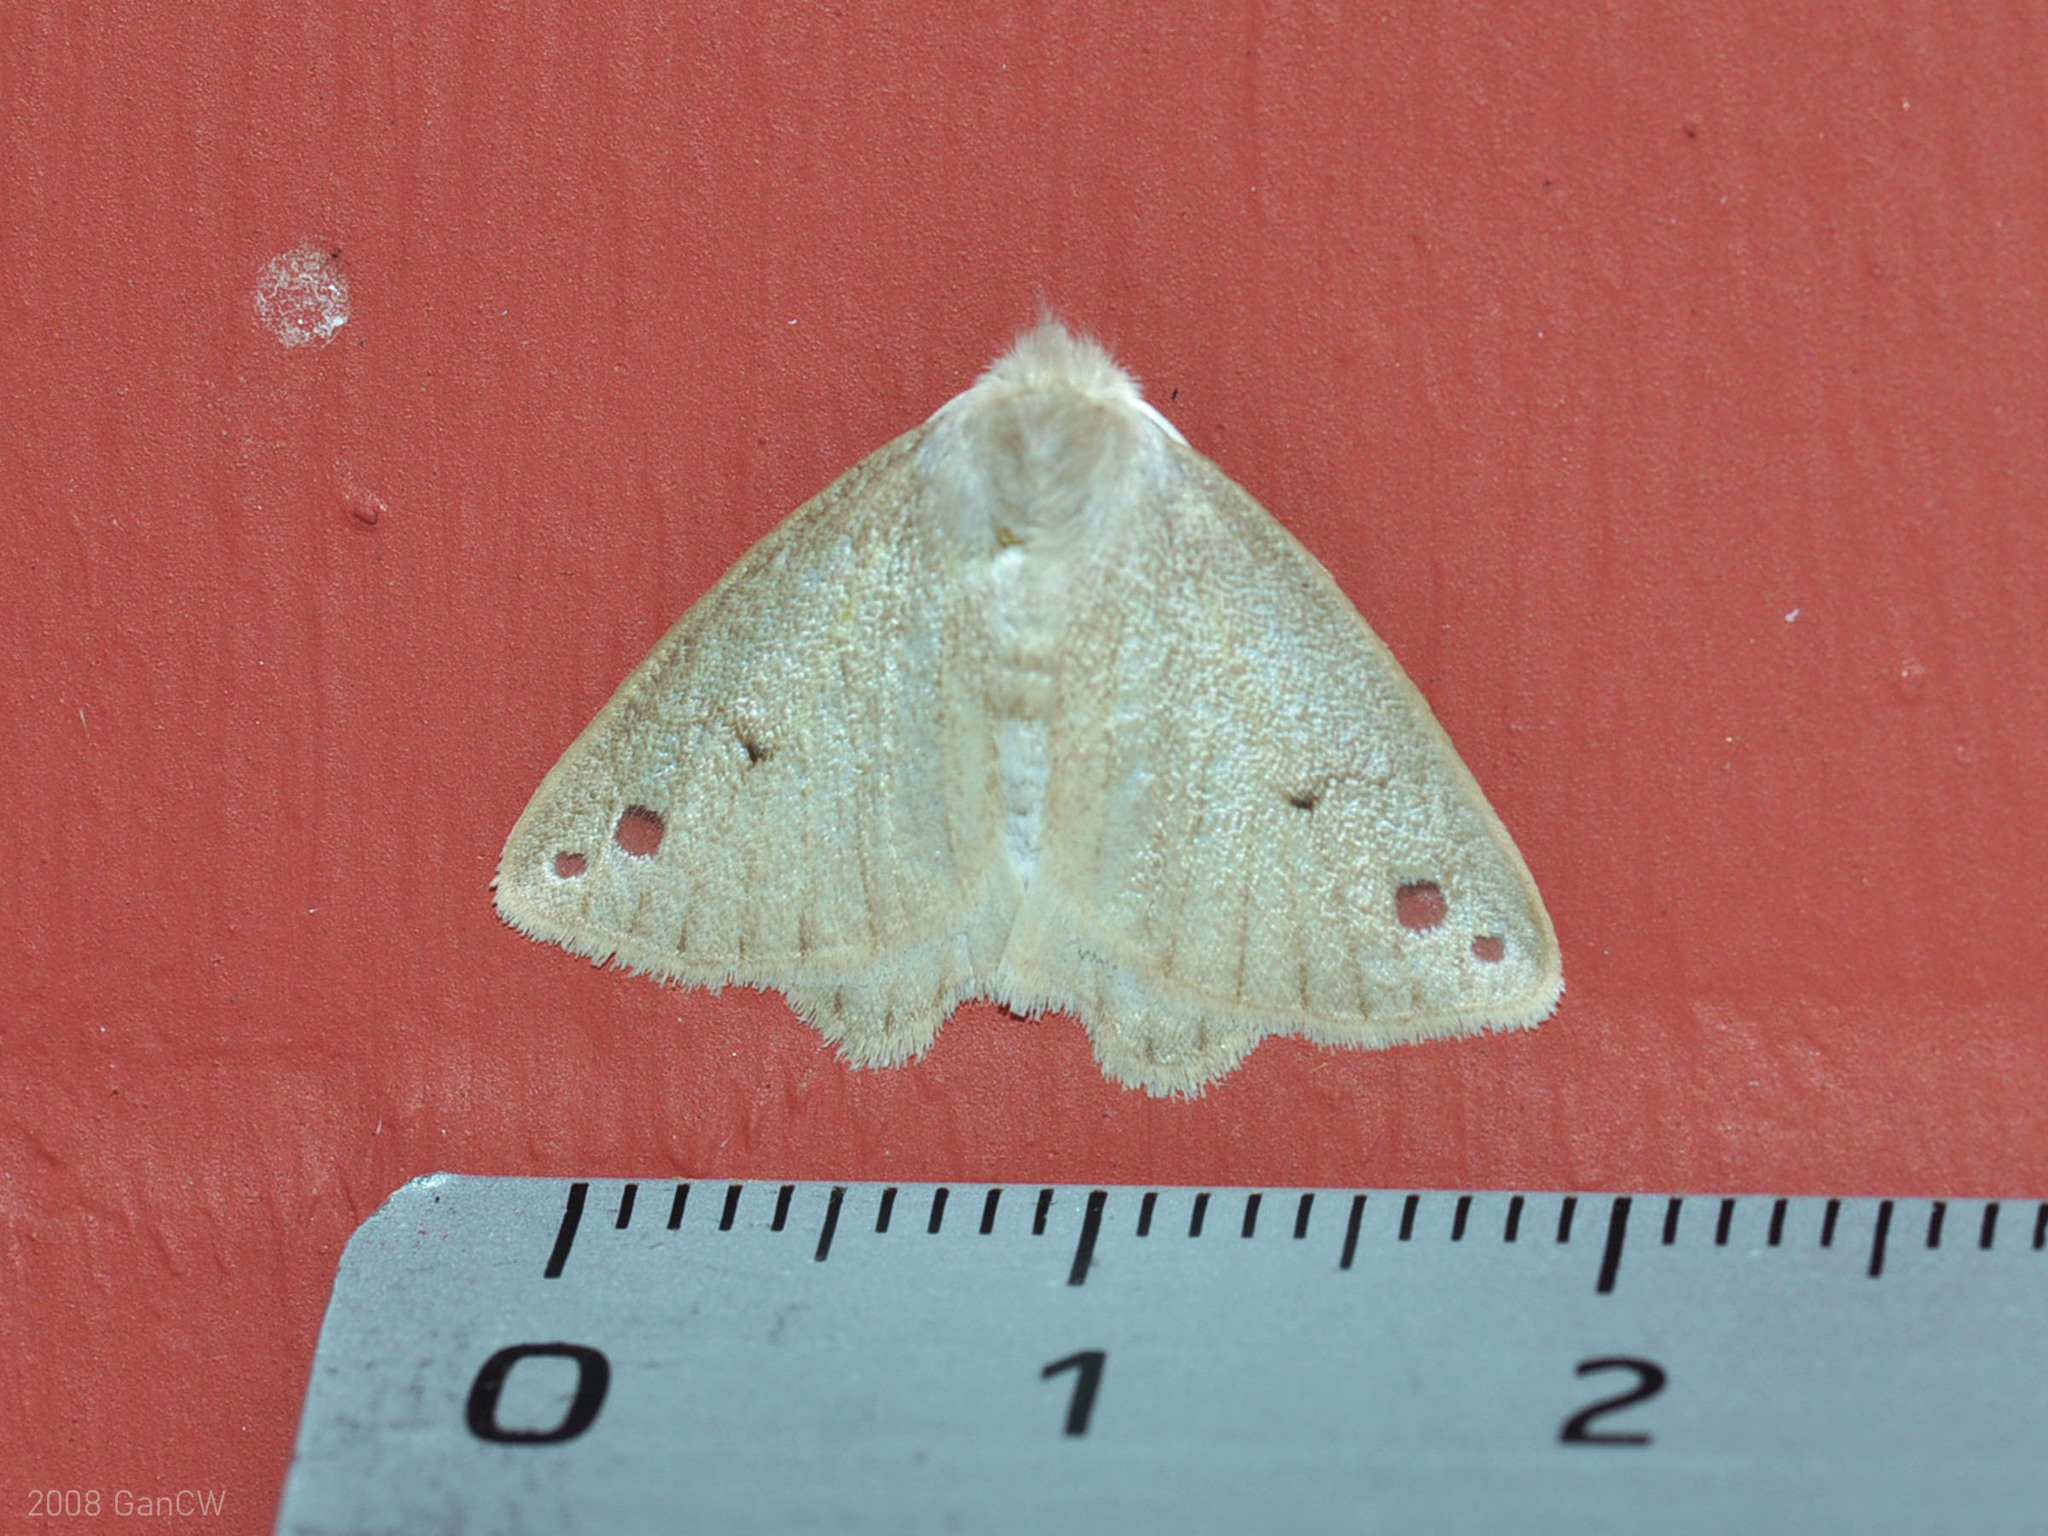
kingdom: Animalia
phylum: Arthropoda
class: Insecta
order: Lepidoptera
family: Erebidae
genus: Arctornis
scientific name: Arctornis obtusa
